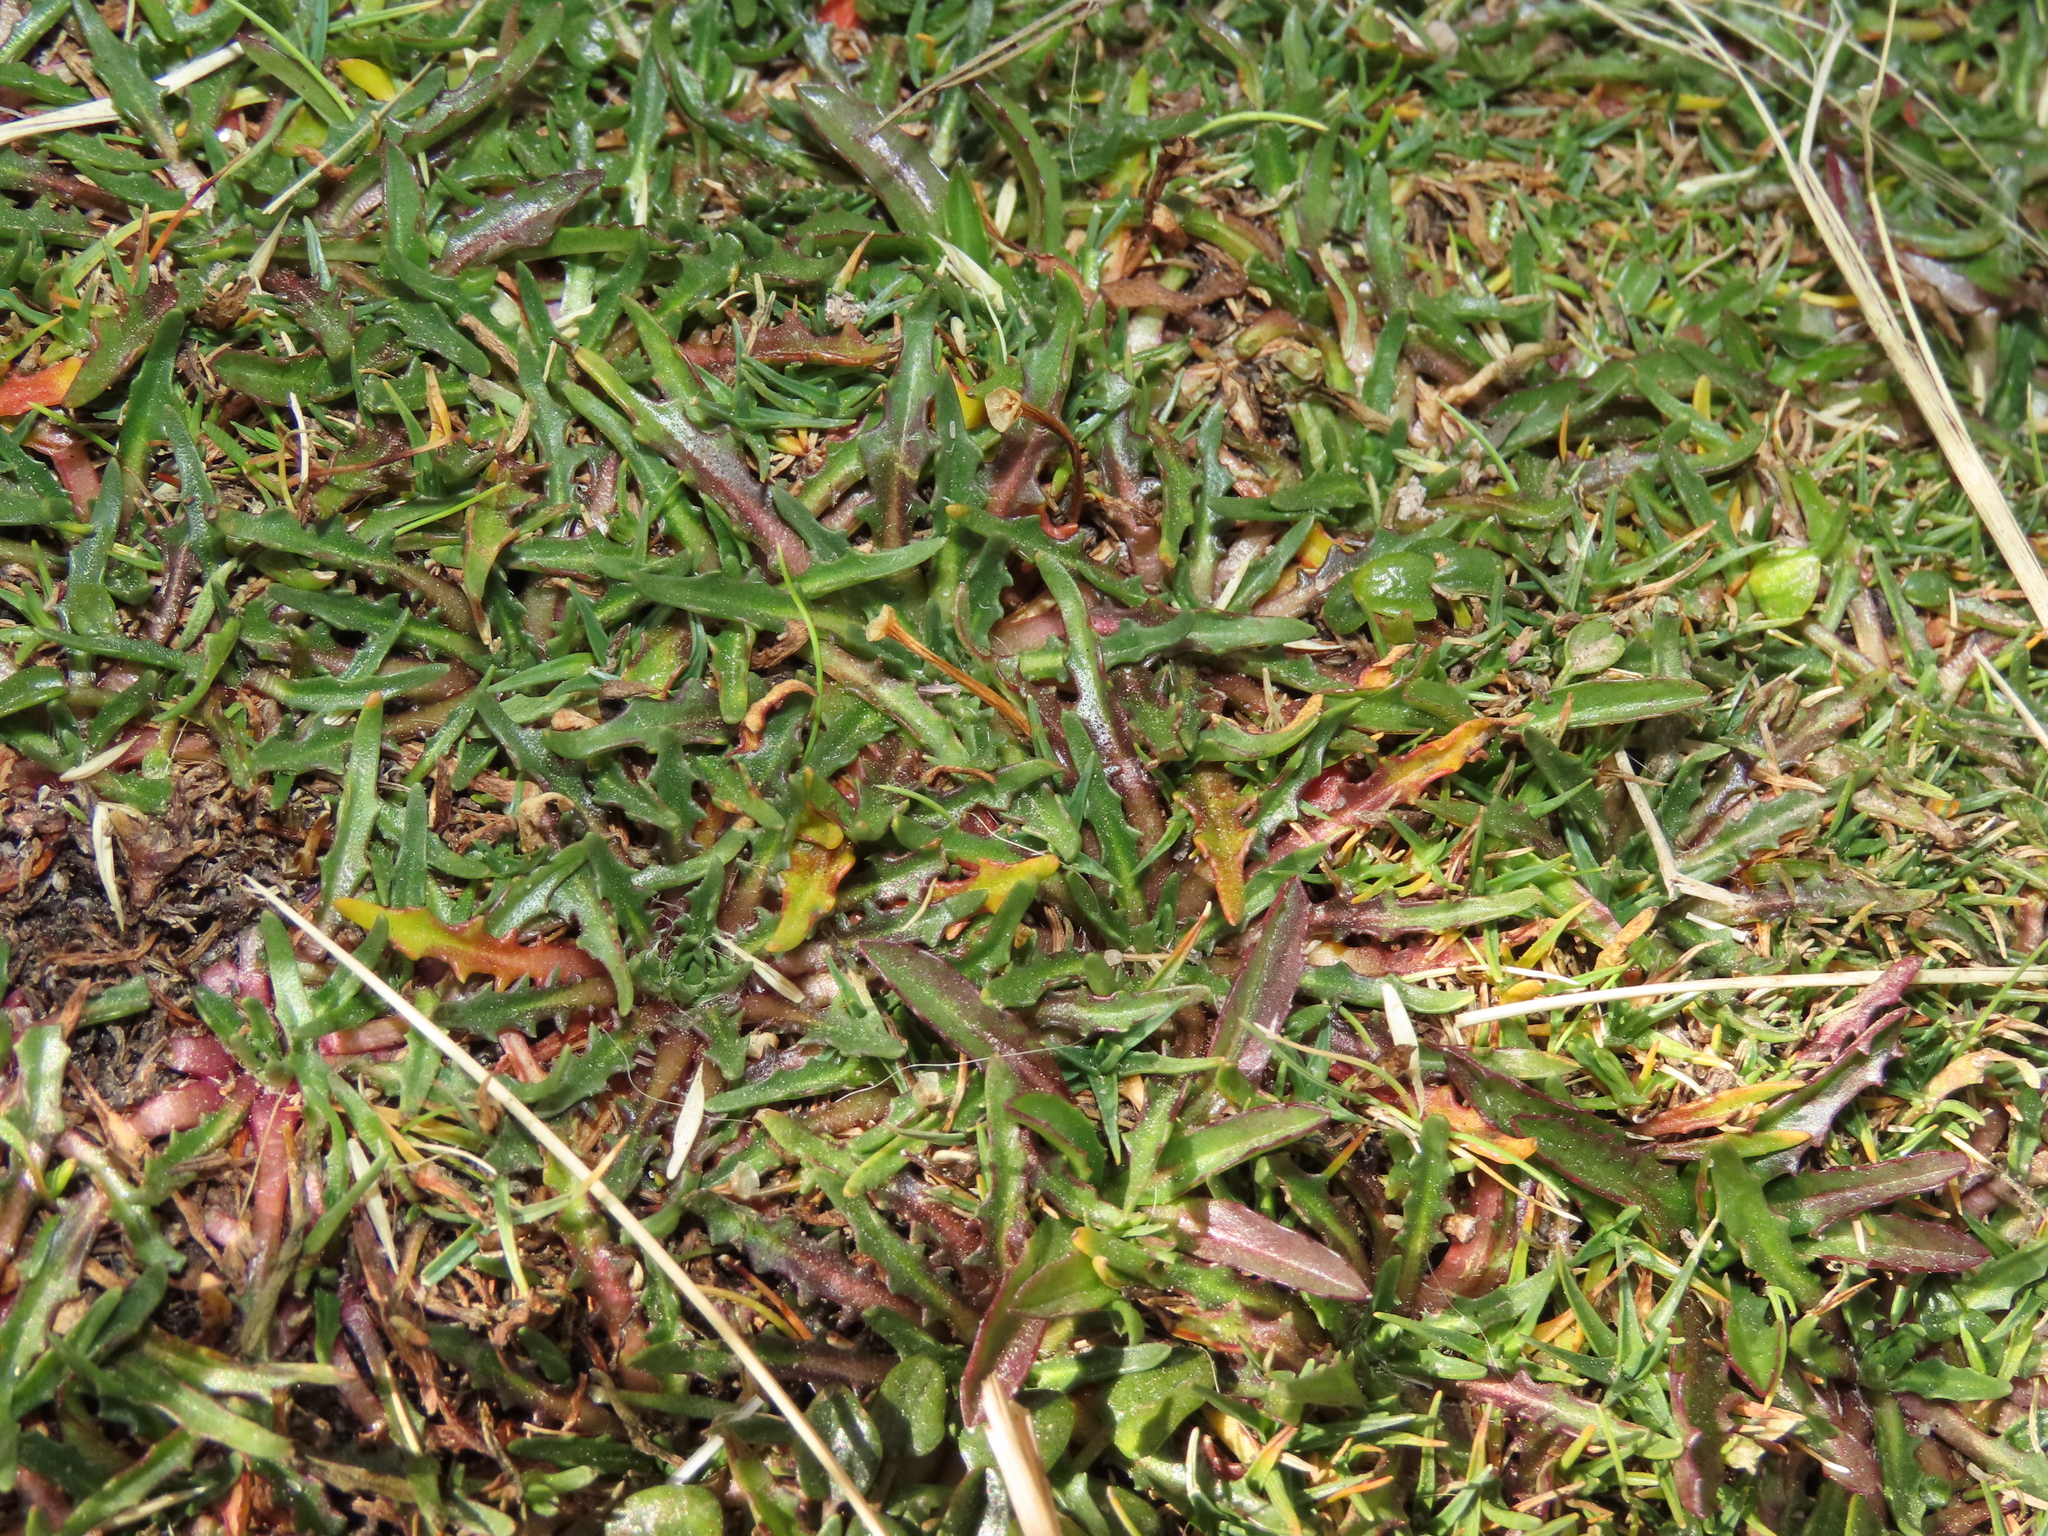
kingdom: Plantae
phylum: Tracheophyta
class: Magnoliopsida
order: Lamiales
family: Plantaginaceae
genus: Plantago
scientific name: Plantago tubulosa
